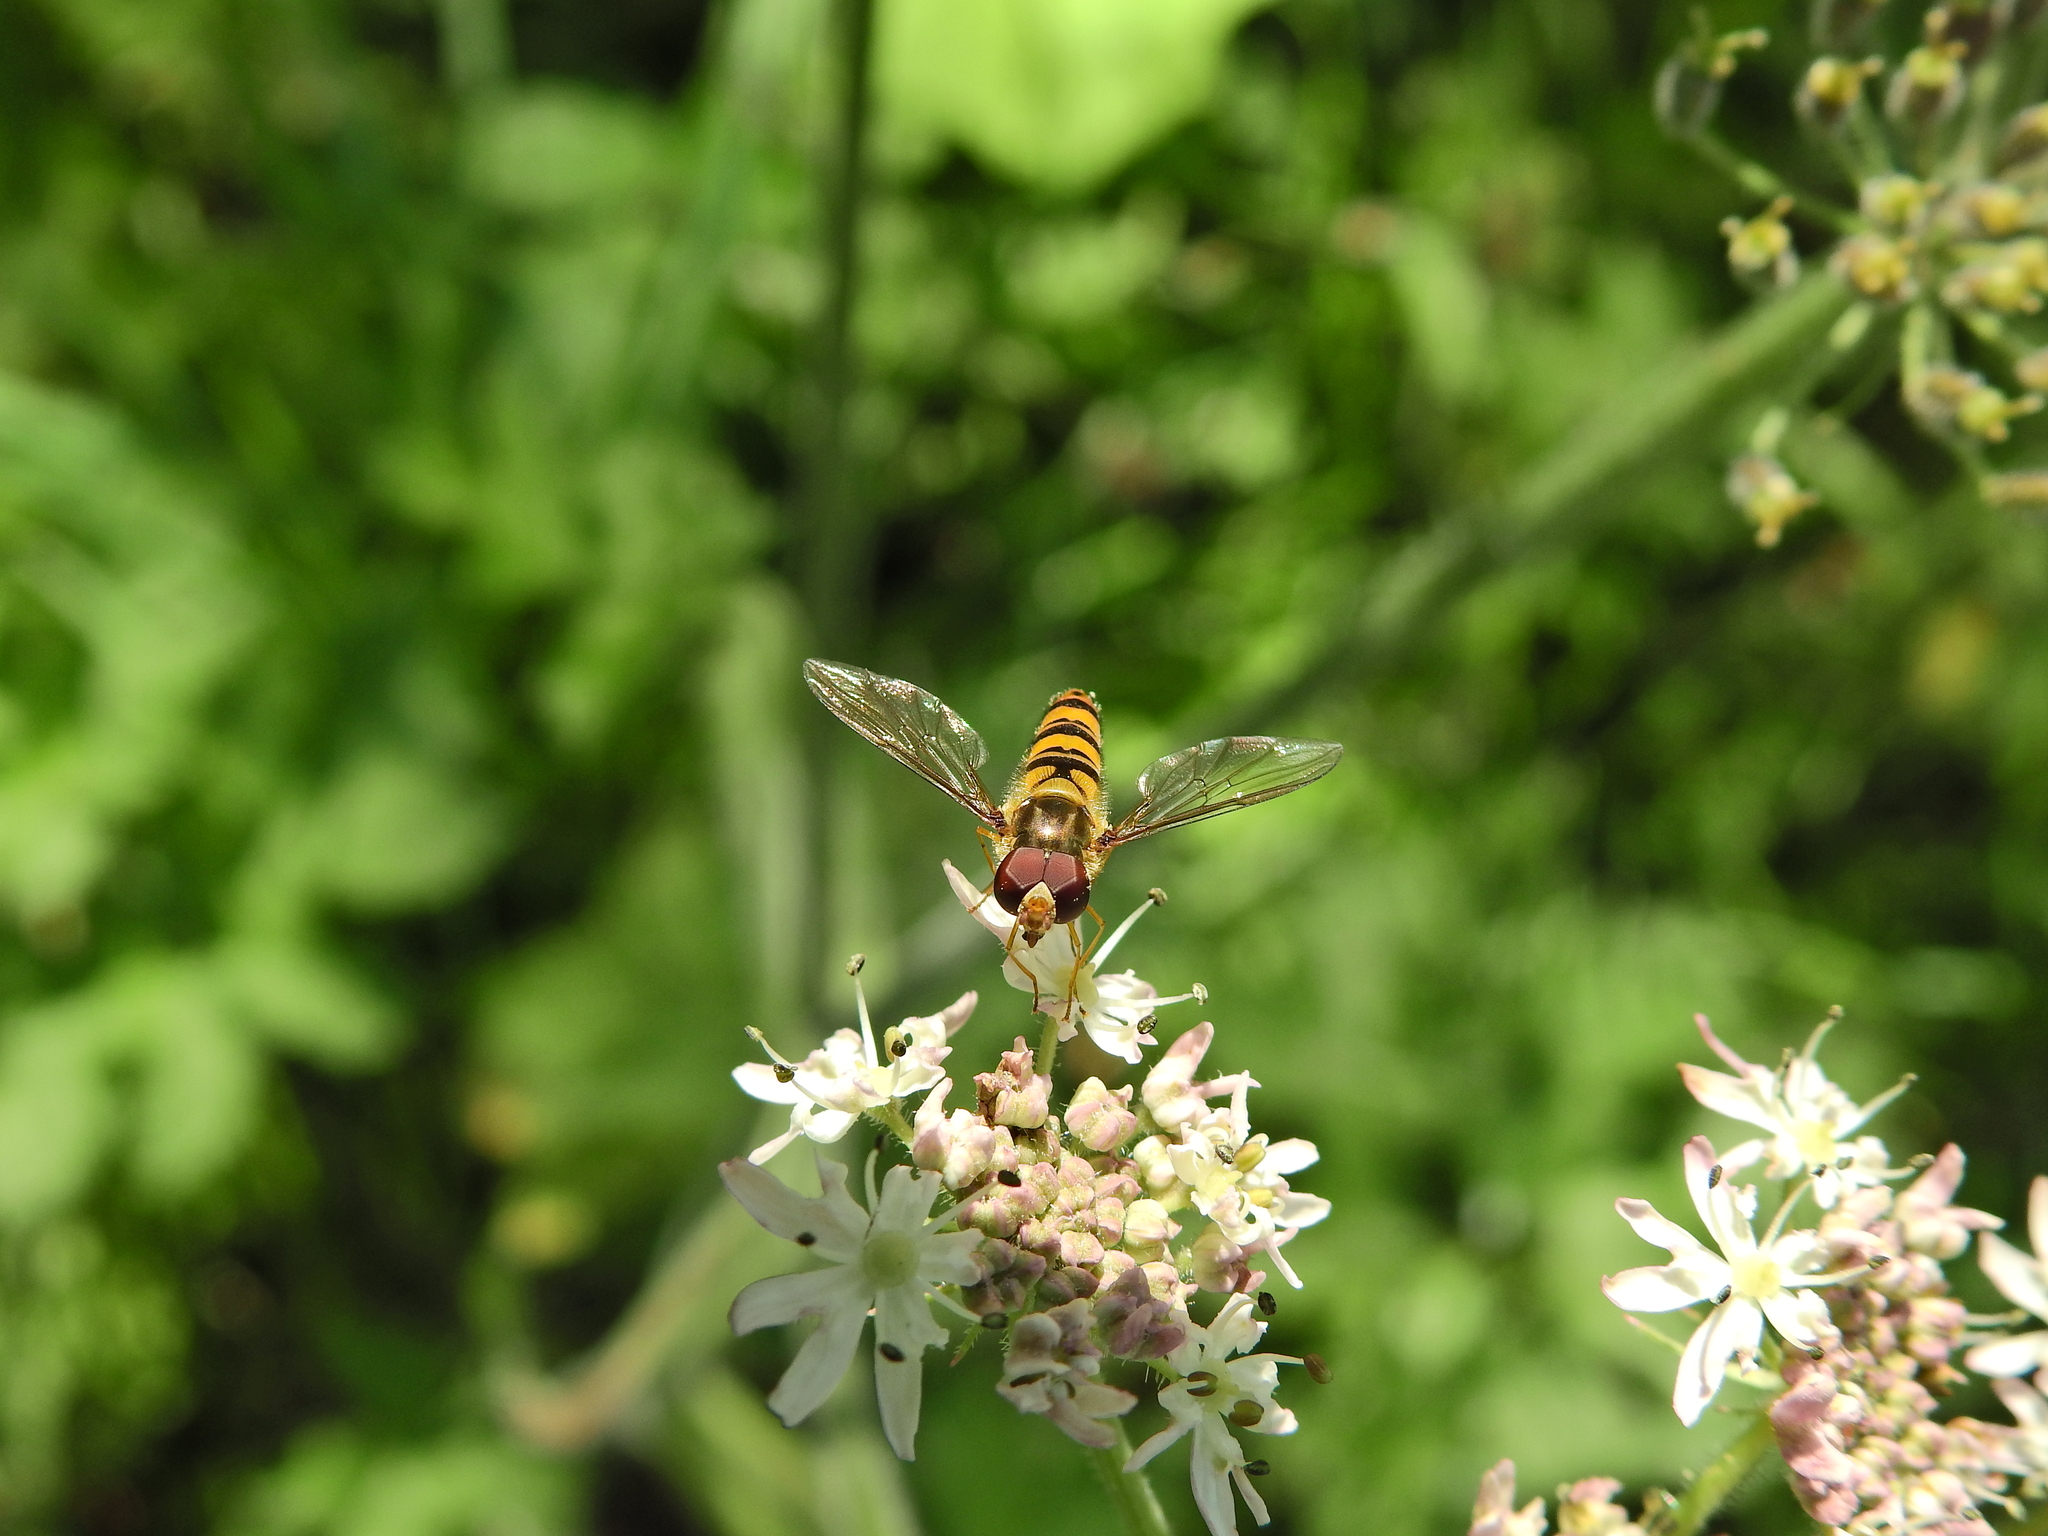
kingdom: Animalia
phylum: Arthropoda
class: Insecta
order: Diptera
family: Syrphidae
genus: Episyrphus
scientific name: Episyrphus balteatus
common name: Marmalade hoverfly
